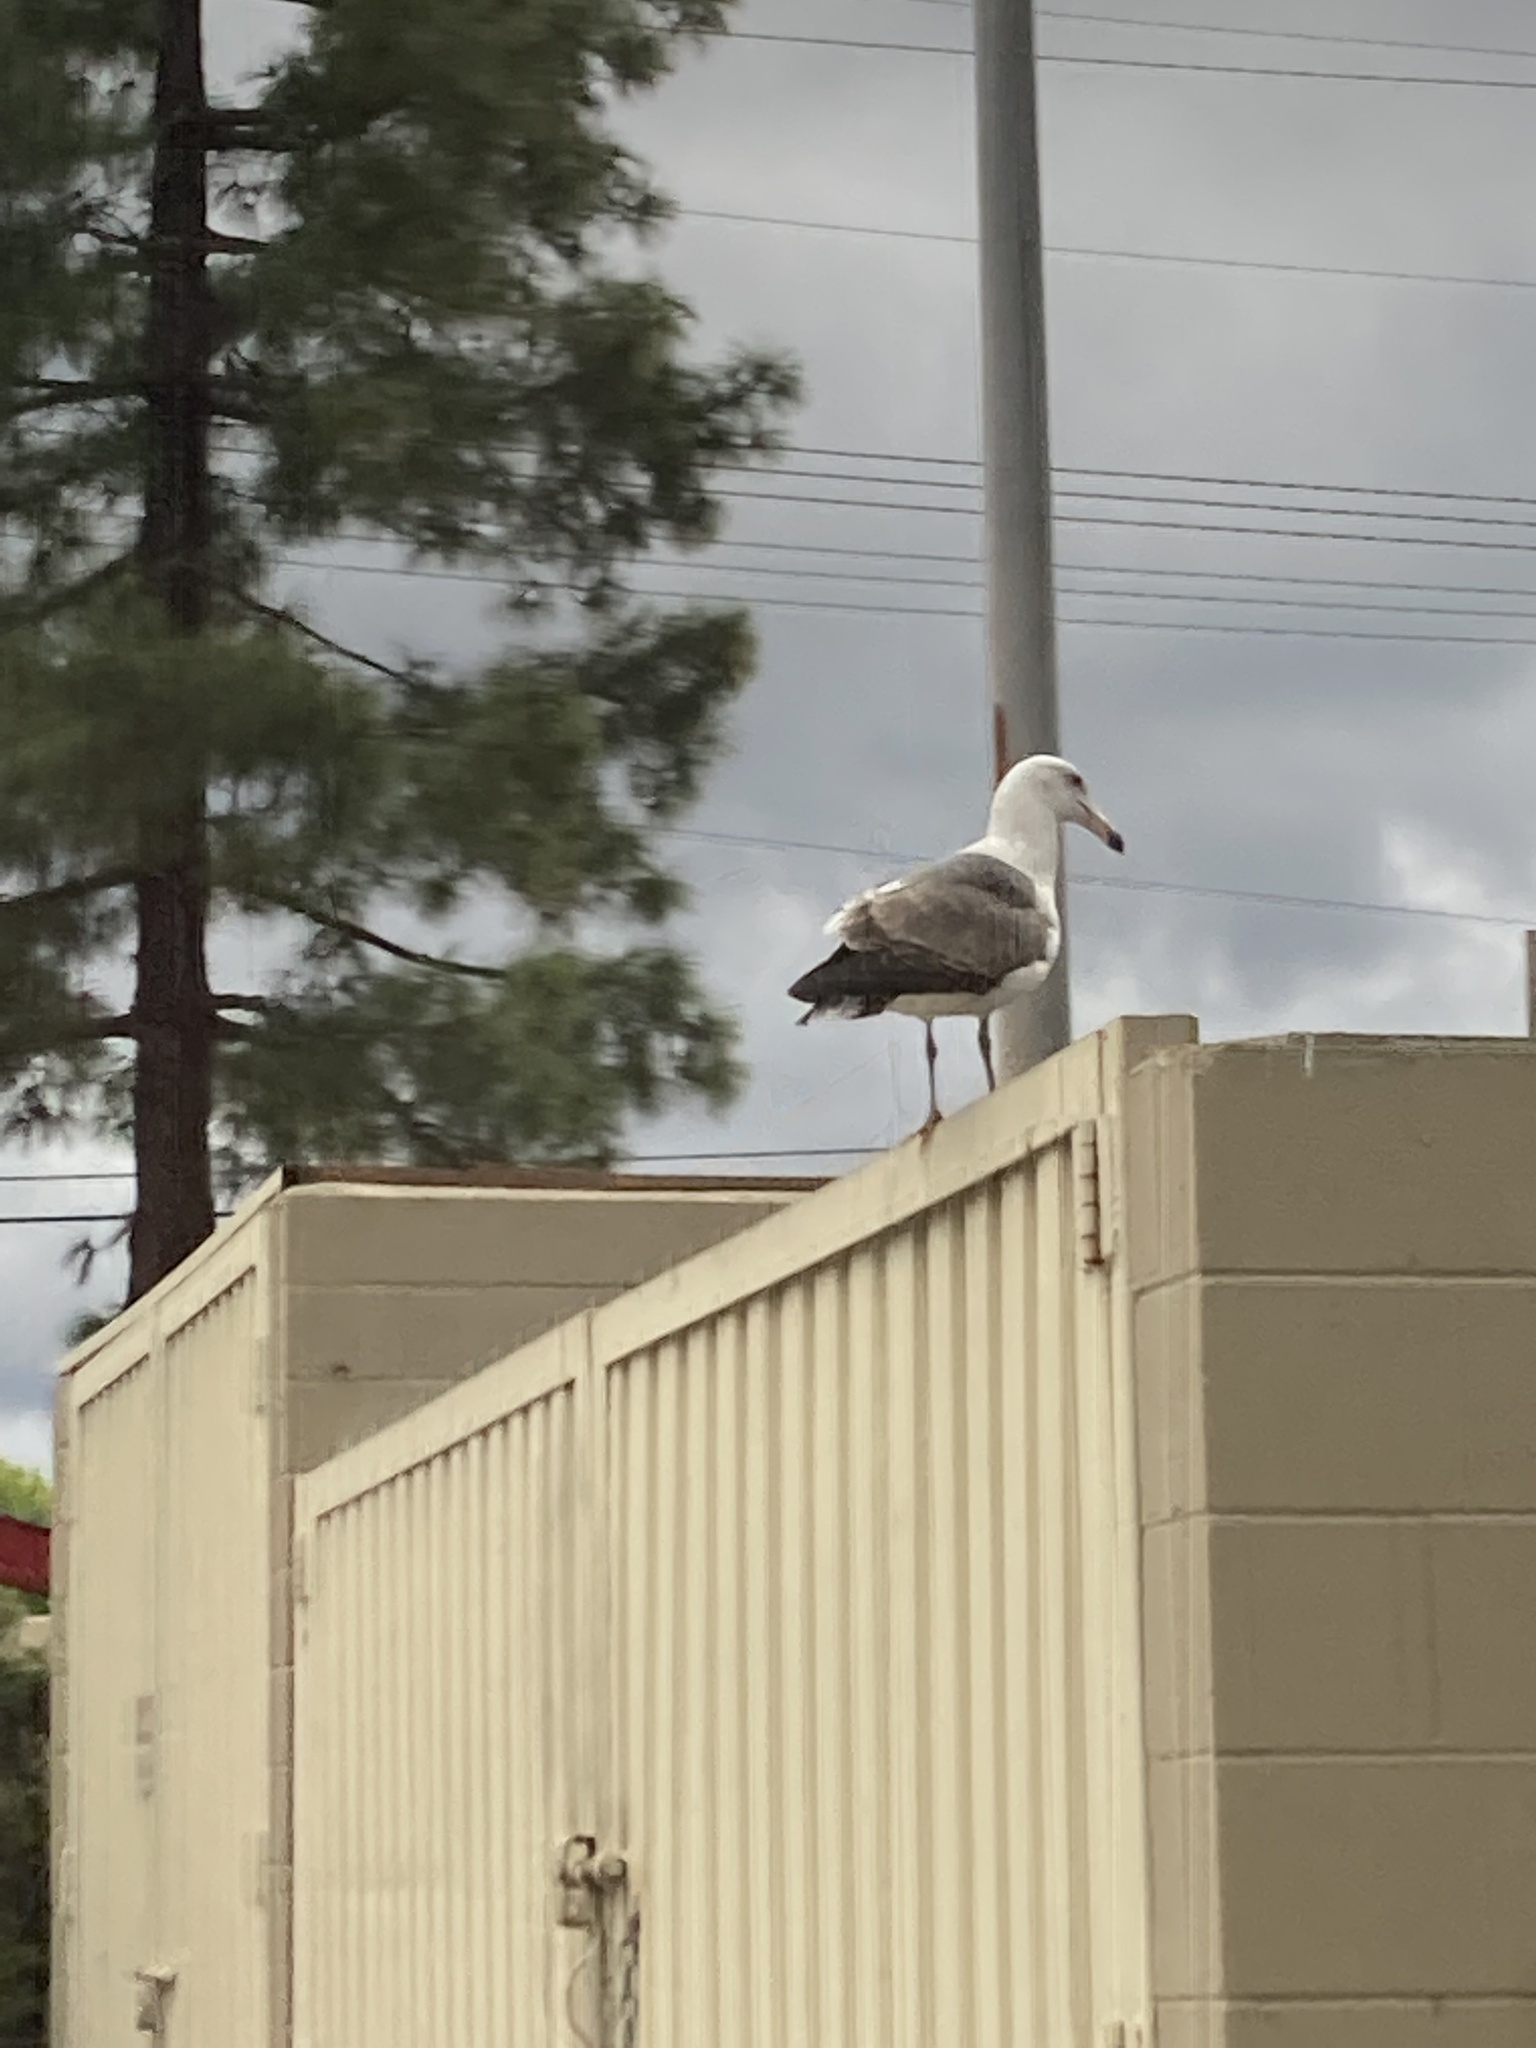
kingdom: Animalia
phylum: Chordata
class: Aves
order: Charadriiformes
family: Laridae
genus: Larus
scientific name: Larus occidentalis
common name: Western gull
